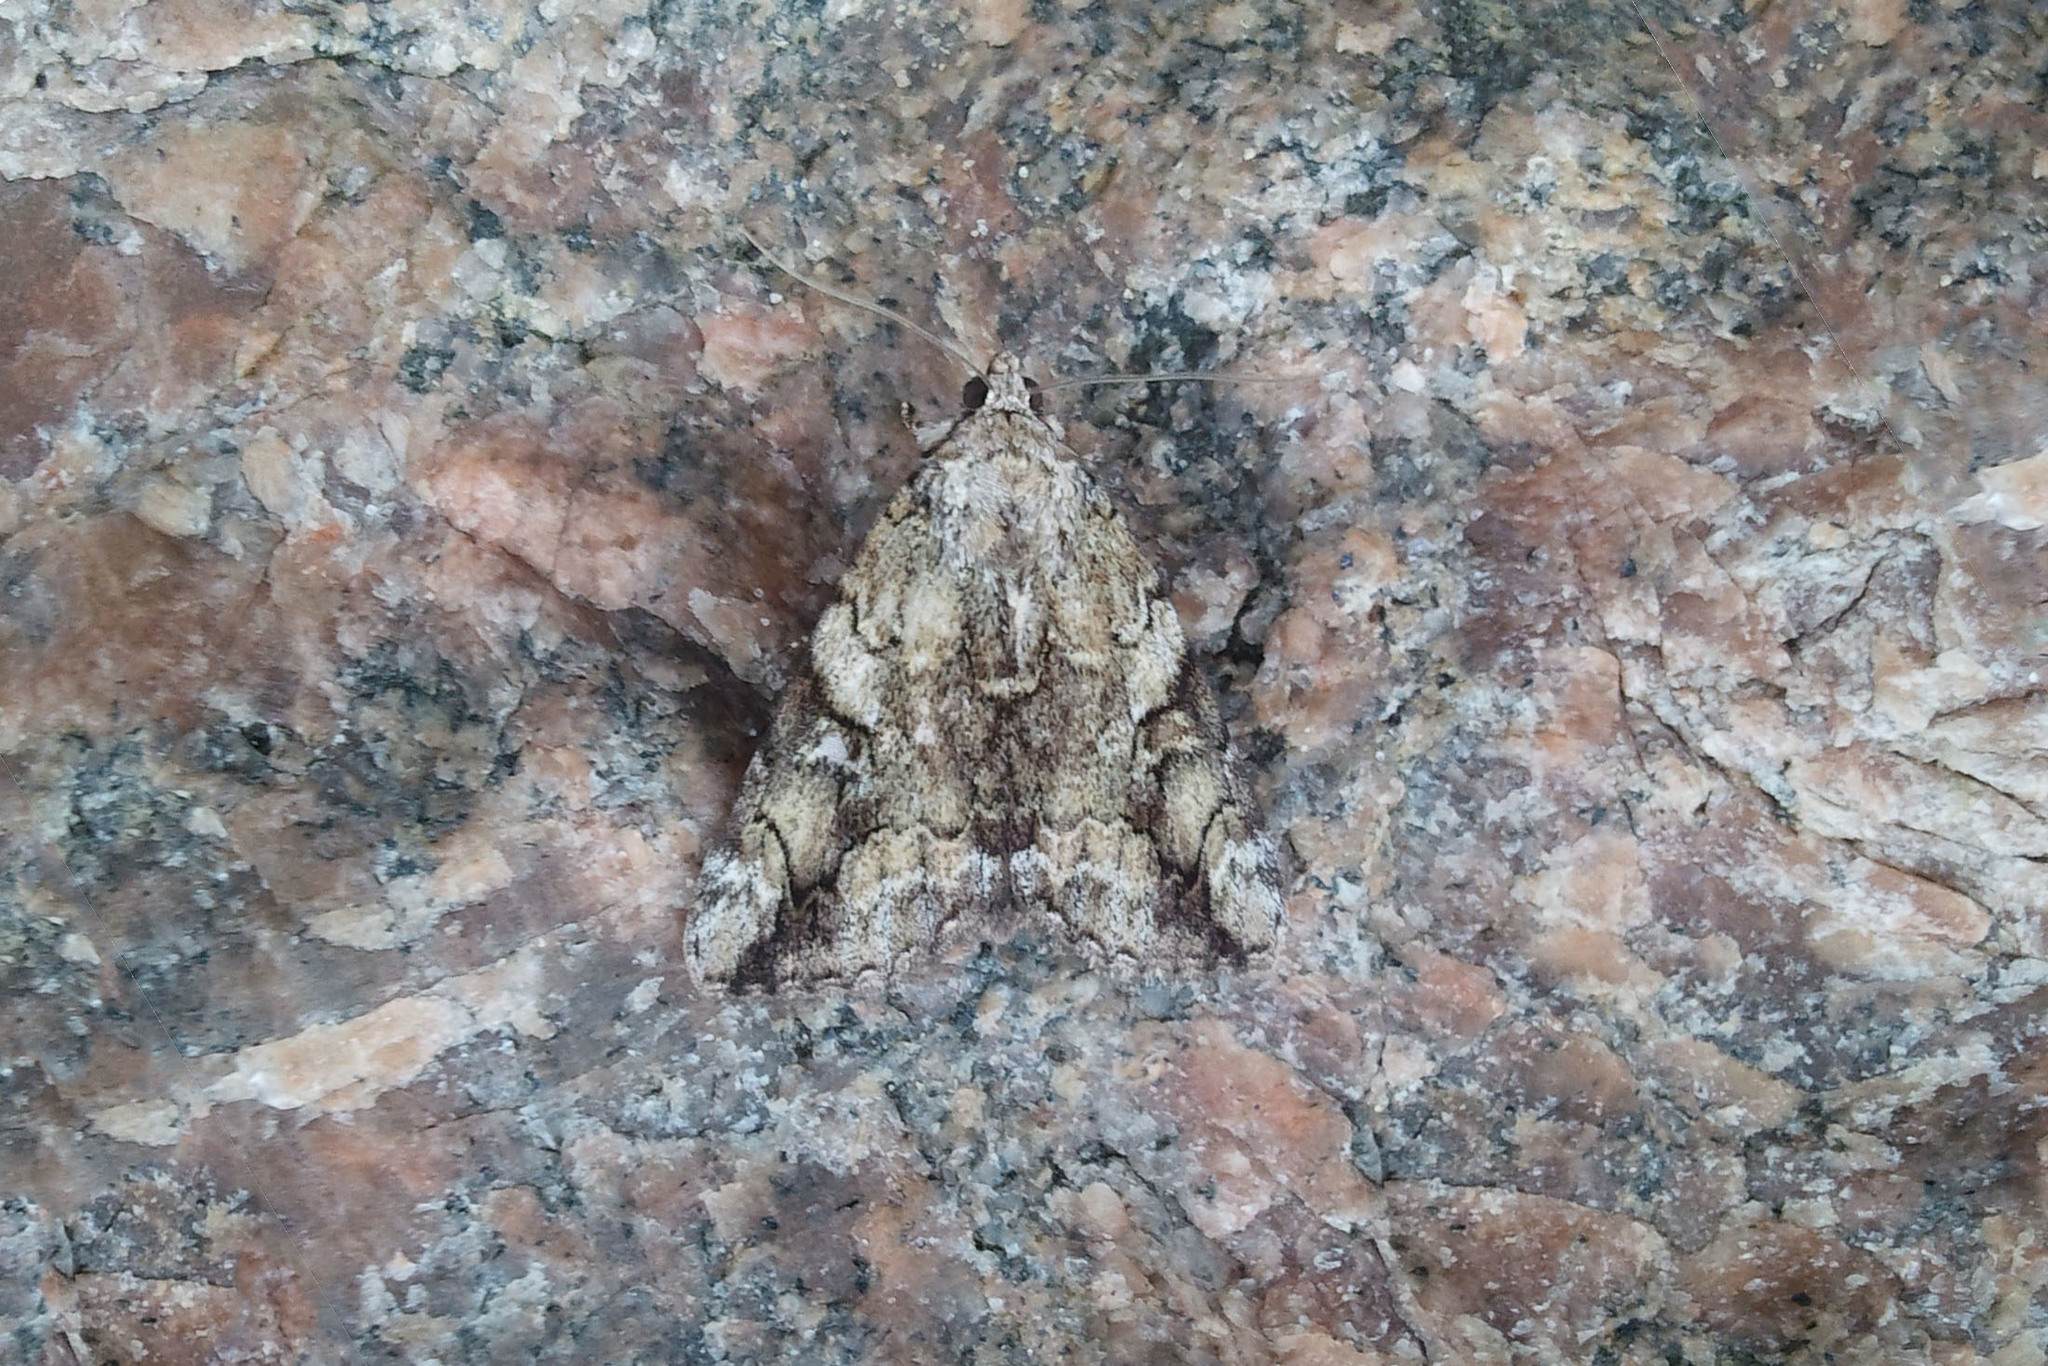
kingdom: Animalia
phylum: Arthropoda
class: Insecta
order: Lepidoptera
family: Erebidae
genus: Catocala
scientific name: Catocala micronympha
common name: Little nymph underwing
